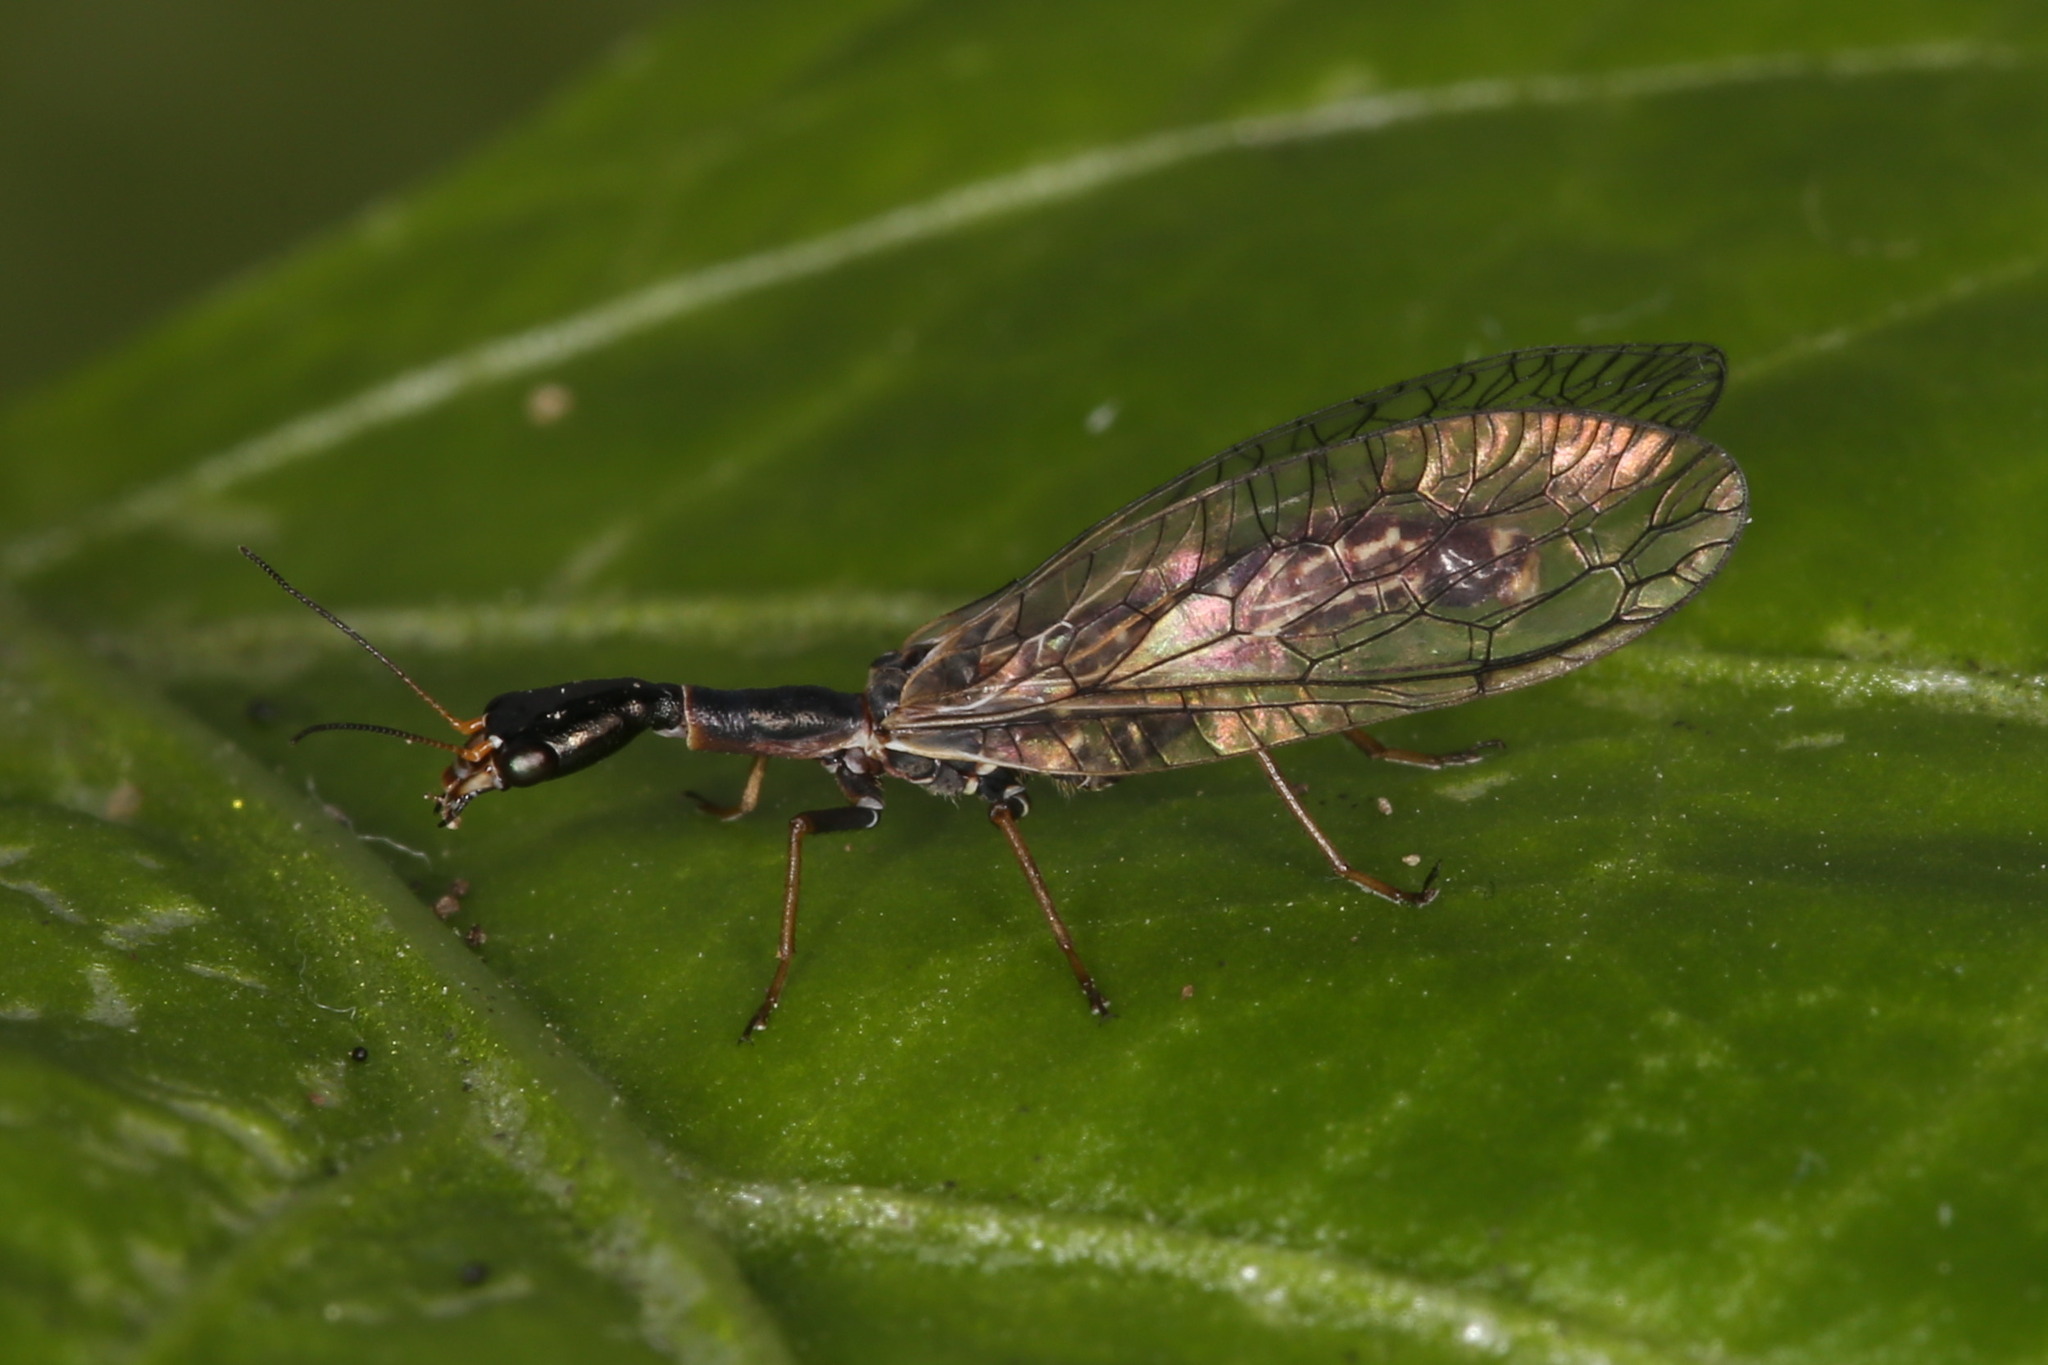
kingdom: Animalia
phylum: Arthropoda
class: Insecta
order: Raphidioptera
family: Raphidiidae
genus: Xanthostigma
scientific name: Xanthostigma xanthostigma
